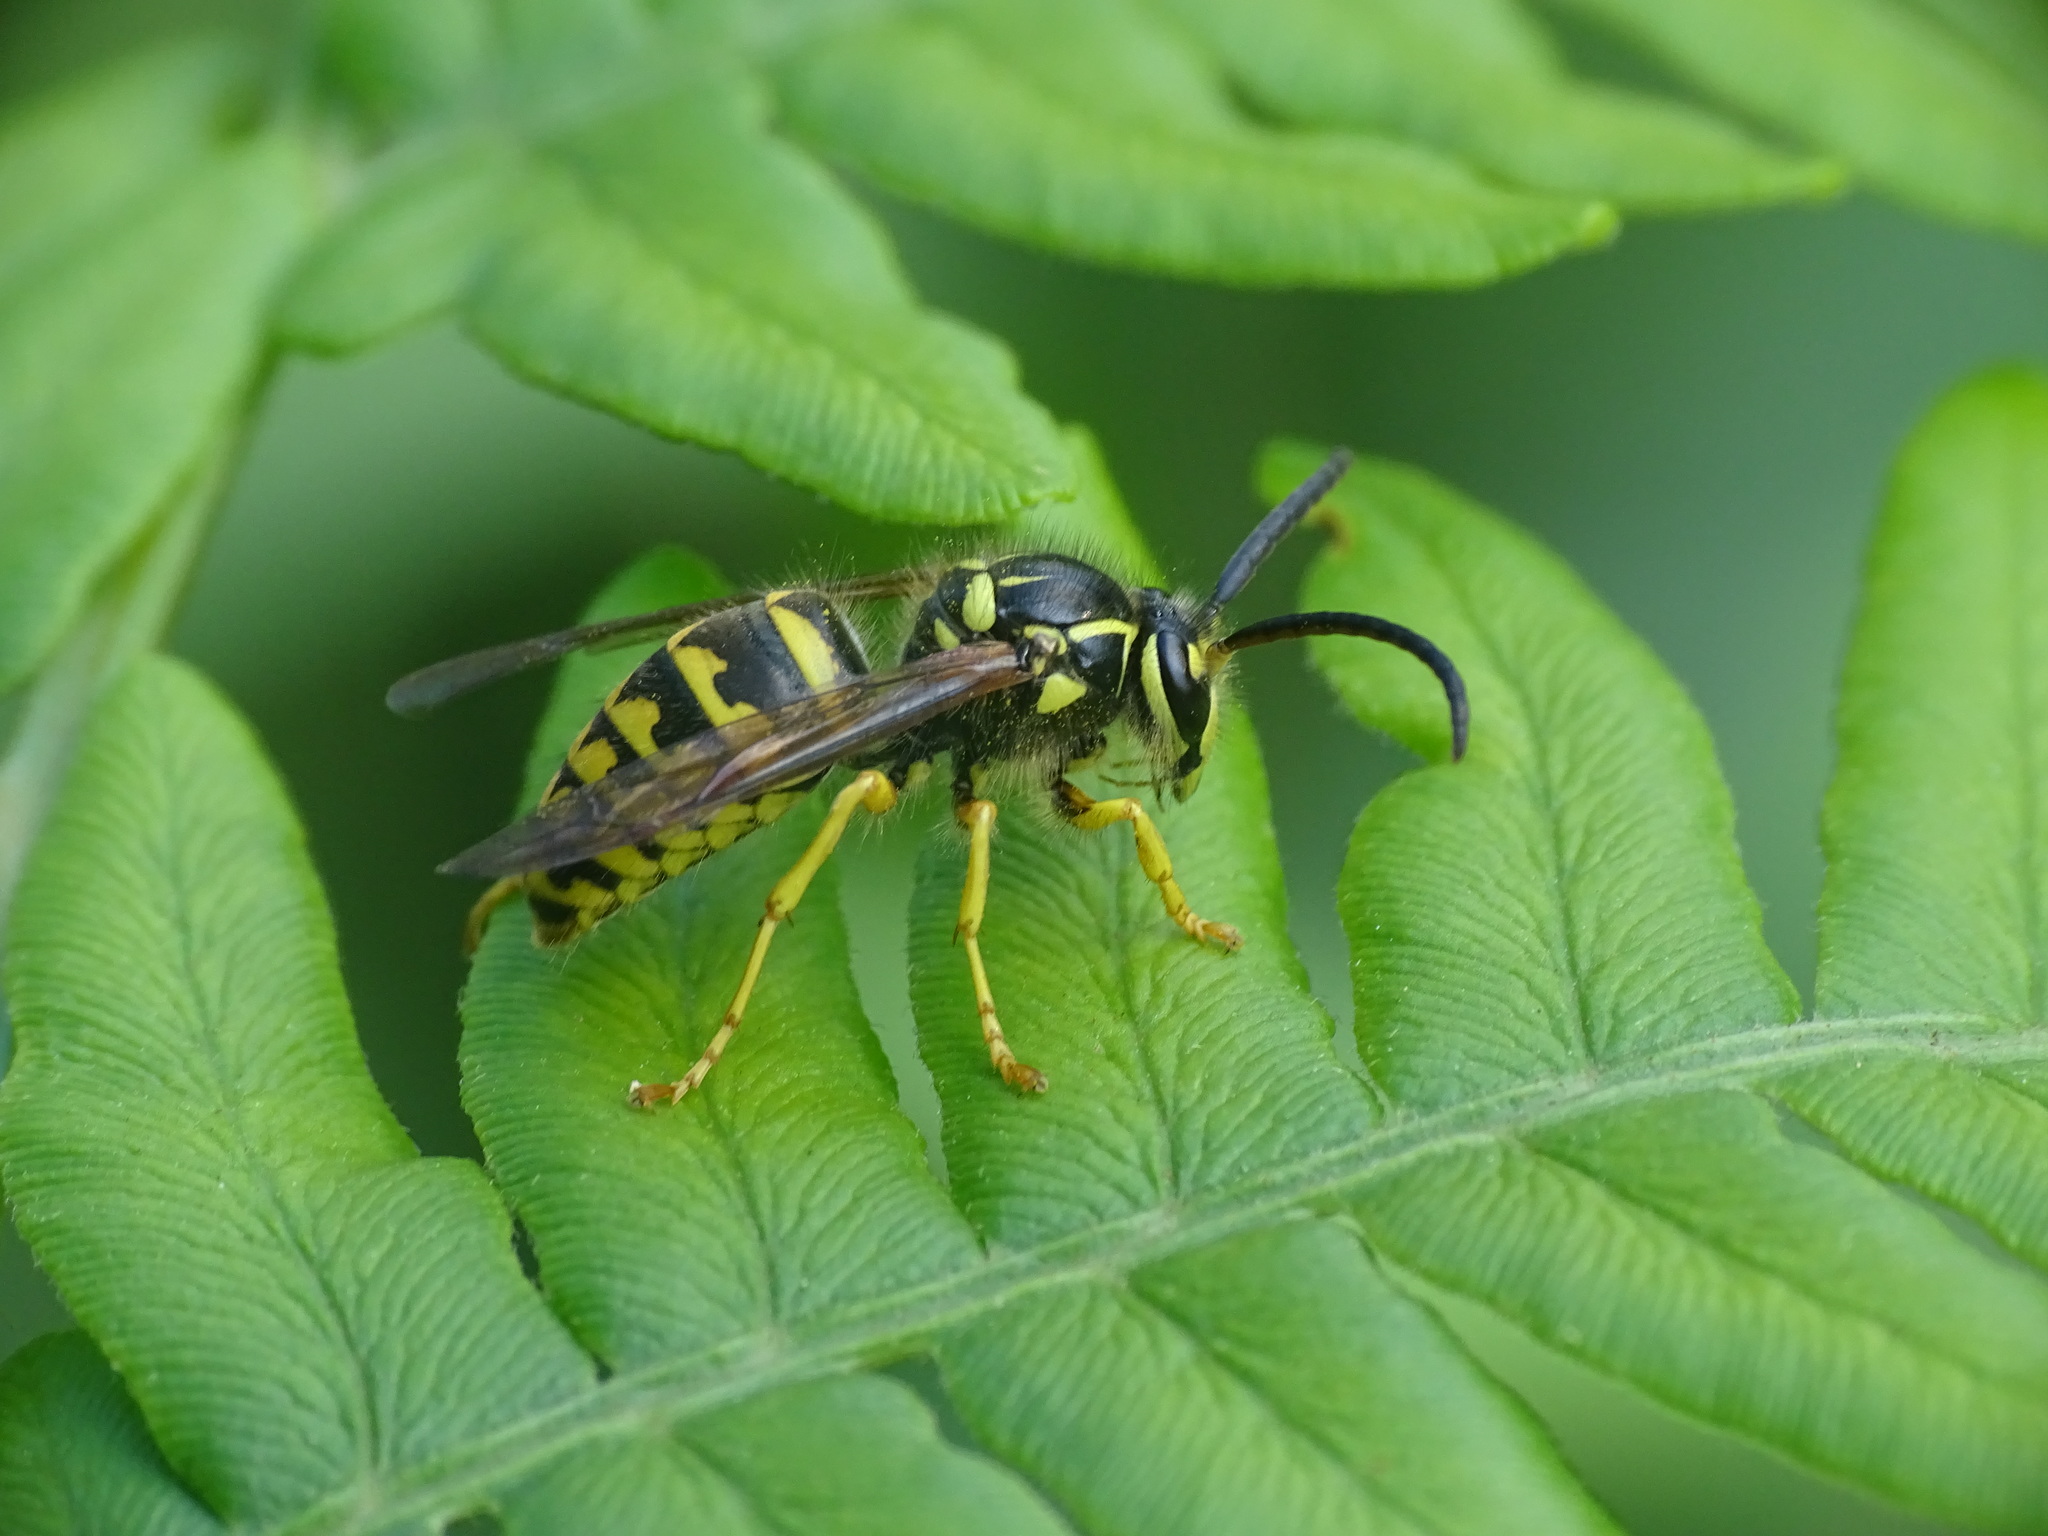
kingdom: Animalia
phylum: Arthropoda
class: Insecta
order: Hymenoptera
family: Vespidae
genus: Dolichovespula
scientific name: Dolichovespula arenaria
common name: Aerial yellowjacket
